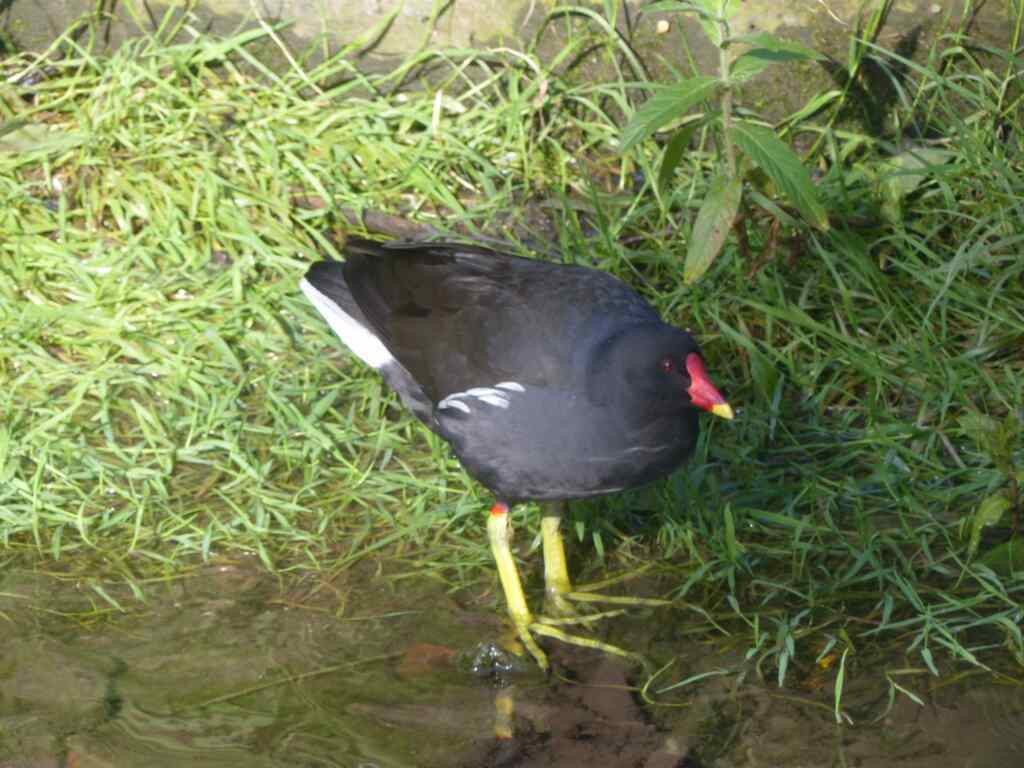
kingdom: Animalia
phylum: Chordata
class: Aves
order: Gruiformes
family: Rallidae
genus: Gallinula
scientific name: Gallinula chloropus
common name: Common moorhen
